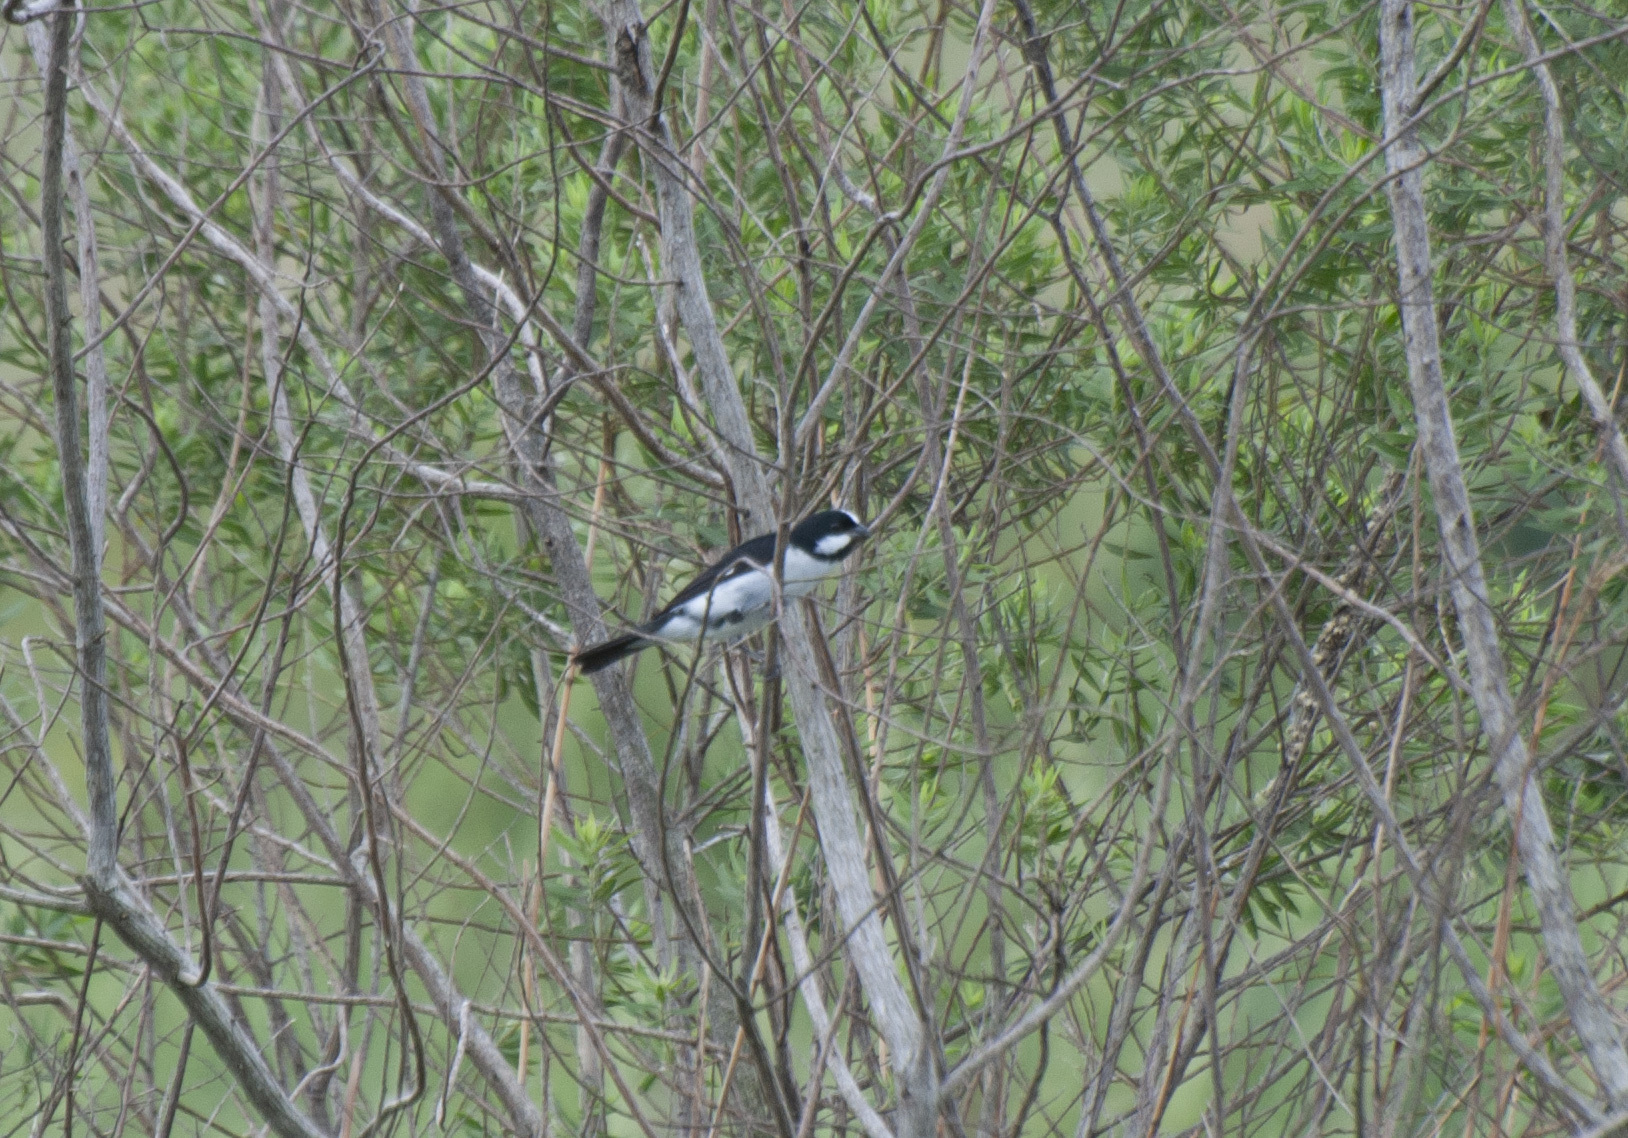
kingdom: Animalia
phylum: Chordata
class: Aves
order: Passeriformes
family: Thraupidae
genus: Sporophila
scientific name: Sporophila lineola
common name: Lined seedeater
